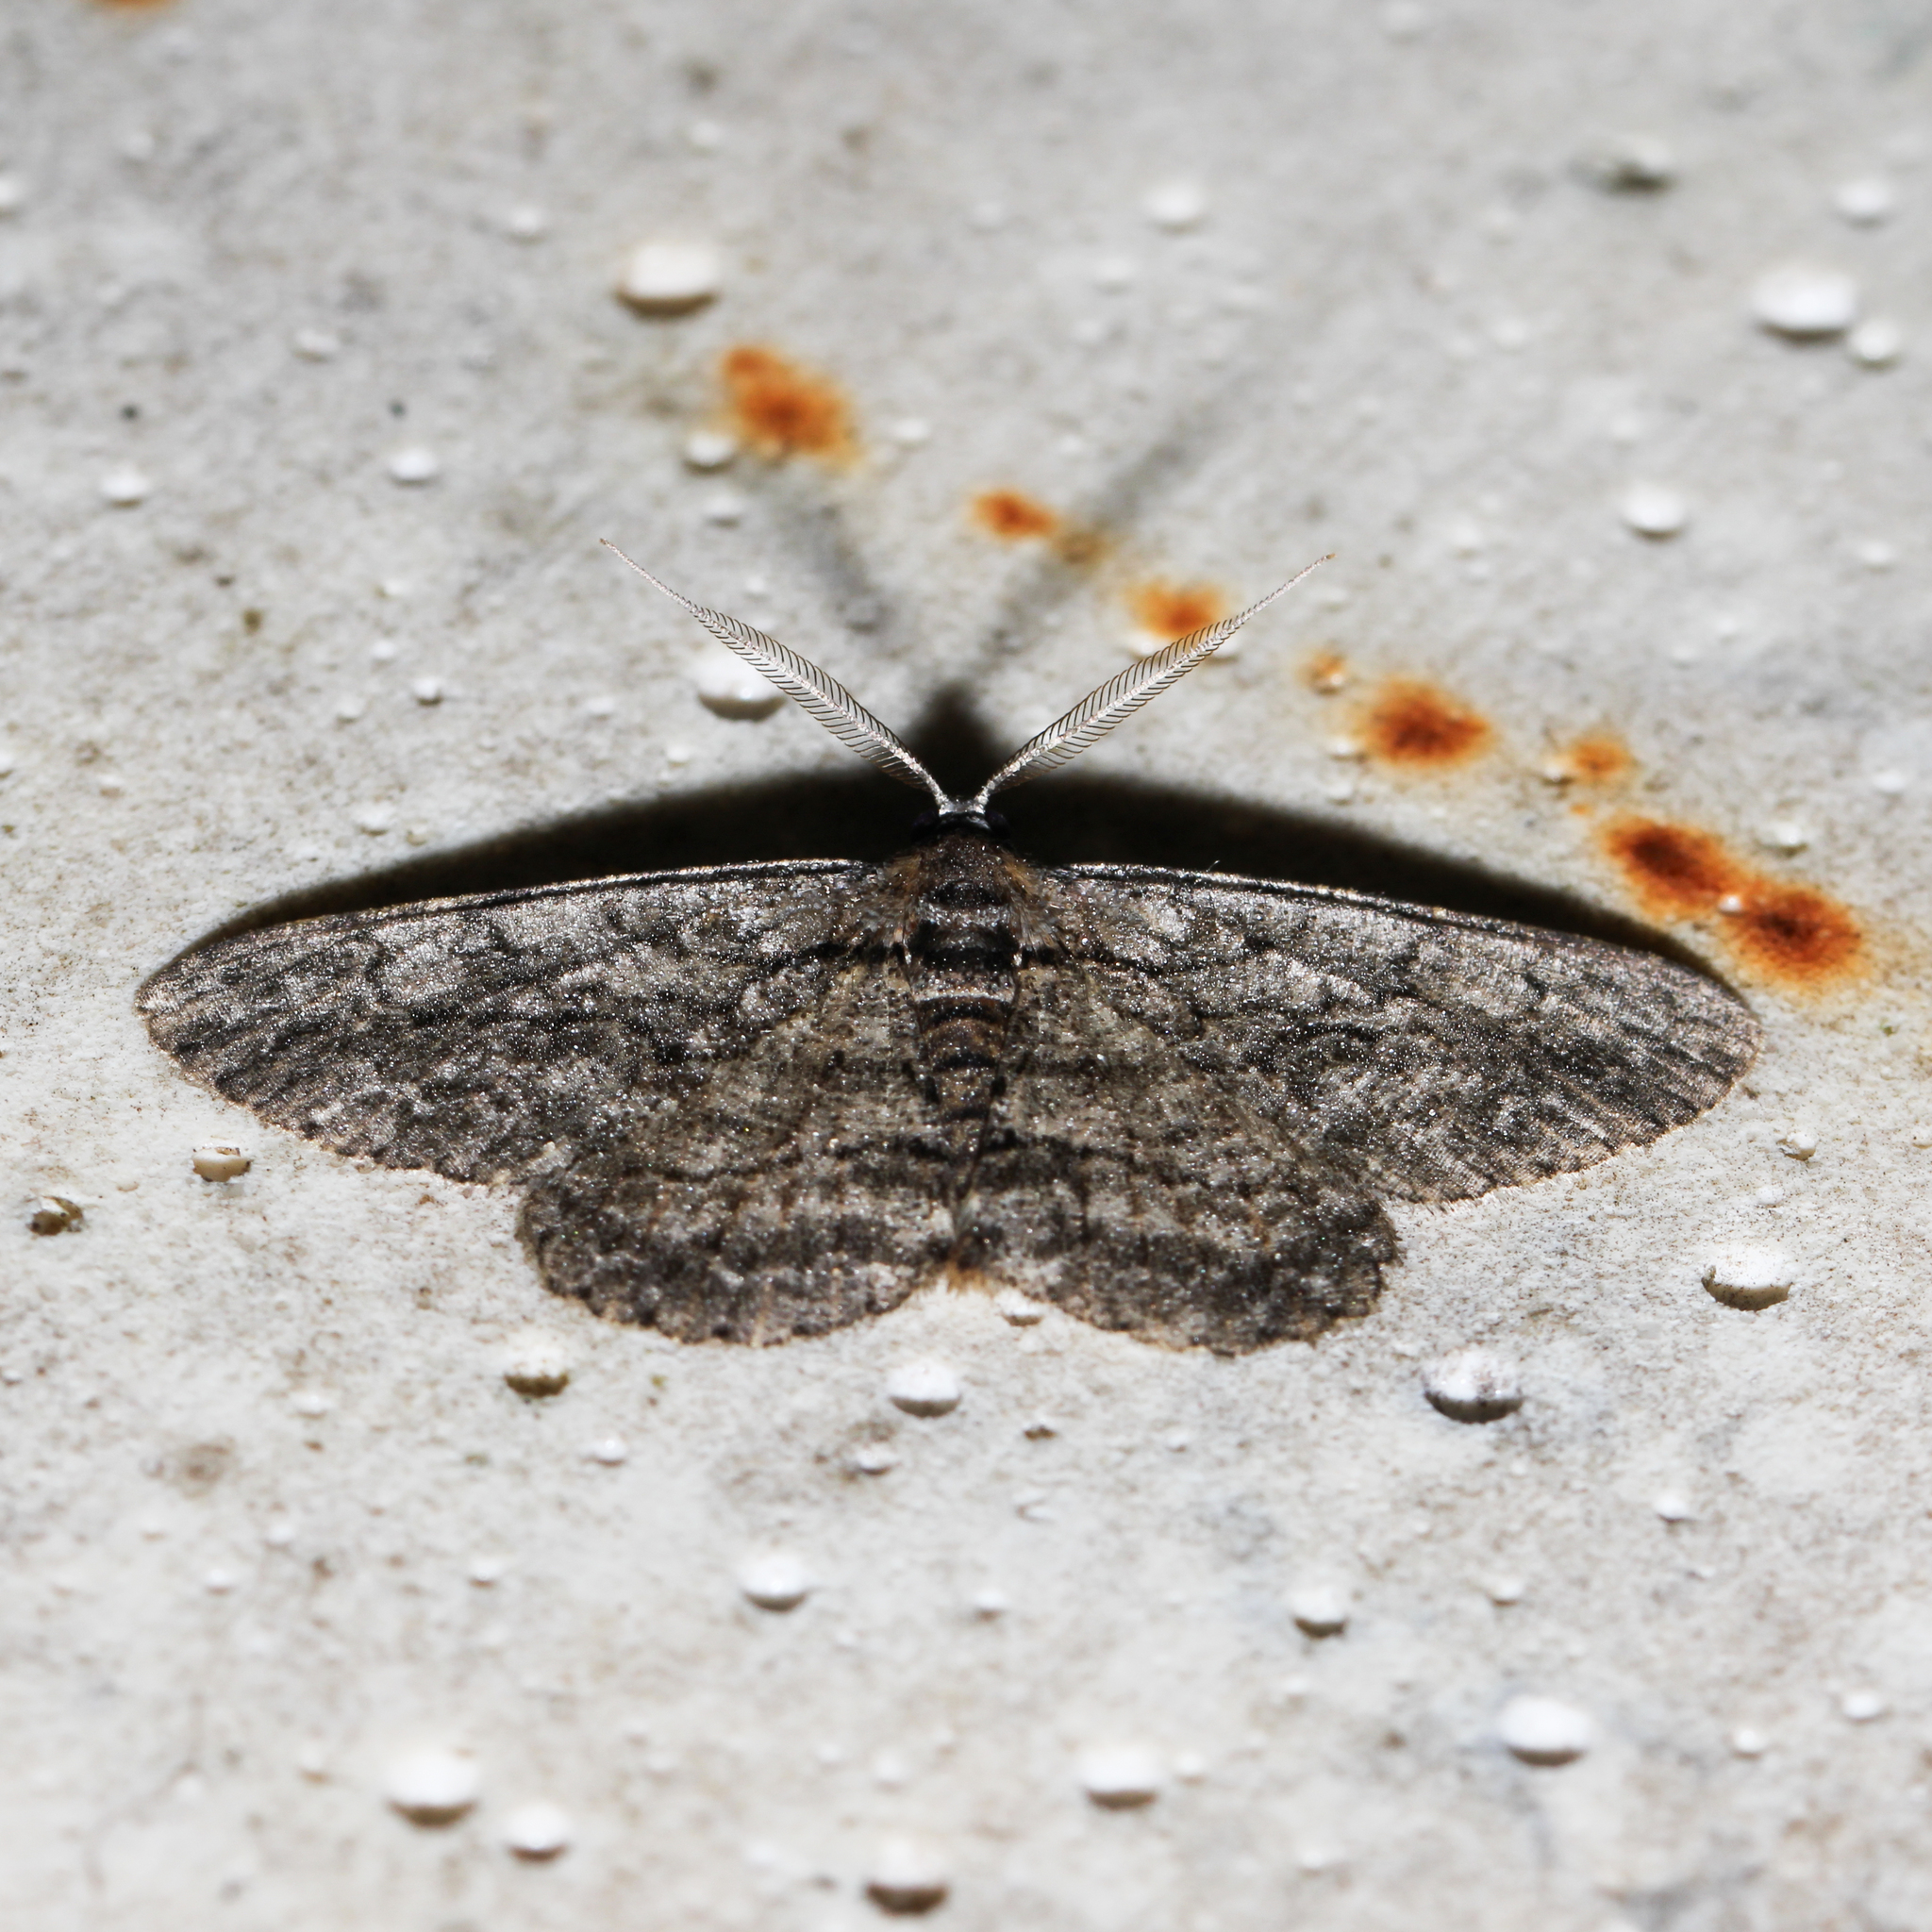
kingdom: Animalia
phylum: Arthropoda
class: Insecta
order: Lepidoptera
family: Geometridae
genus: Anavitrinella
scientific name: Anavitrinella pampinaria
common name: Common gray
